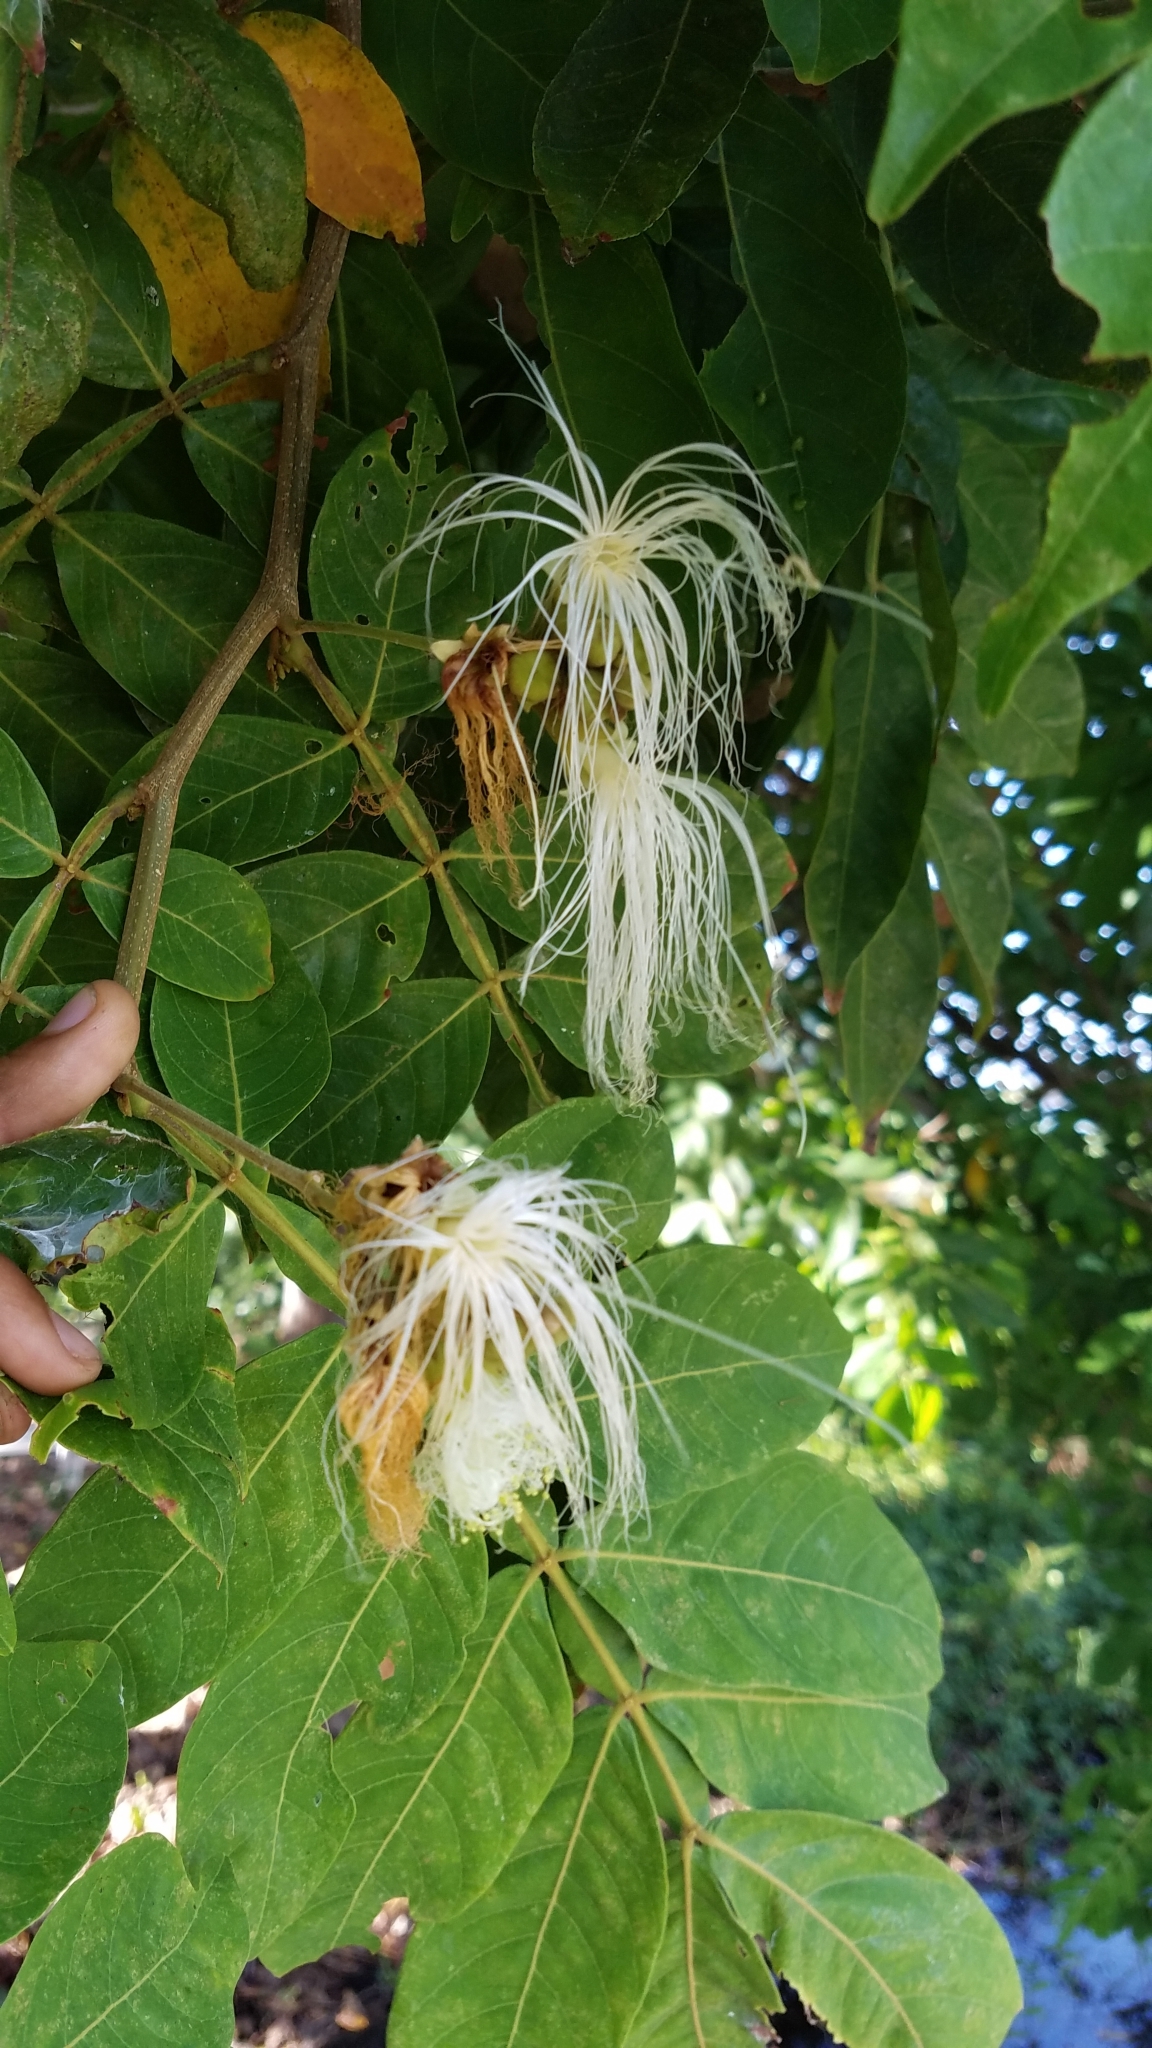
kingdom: Plantae
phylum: Tracheophyta
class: Magnoliopsida
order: Fabales
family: Fabaceae
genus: Inga
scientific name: Inga vera
